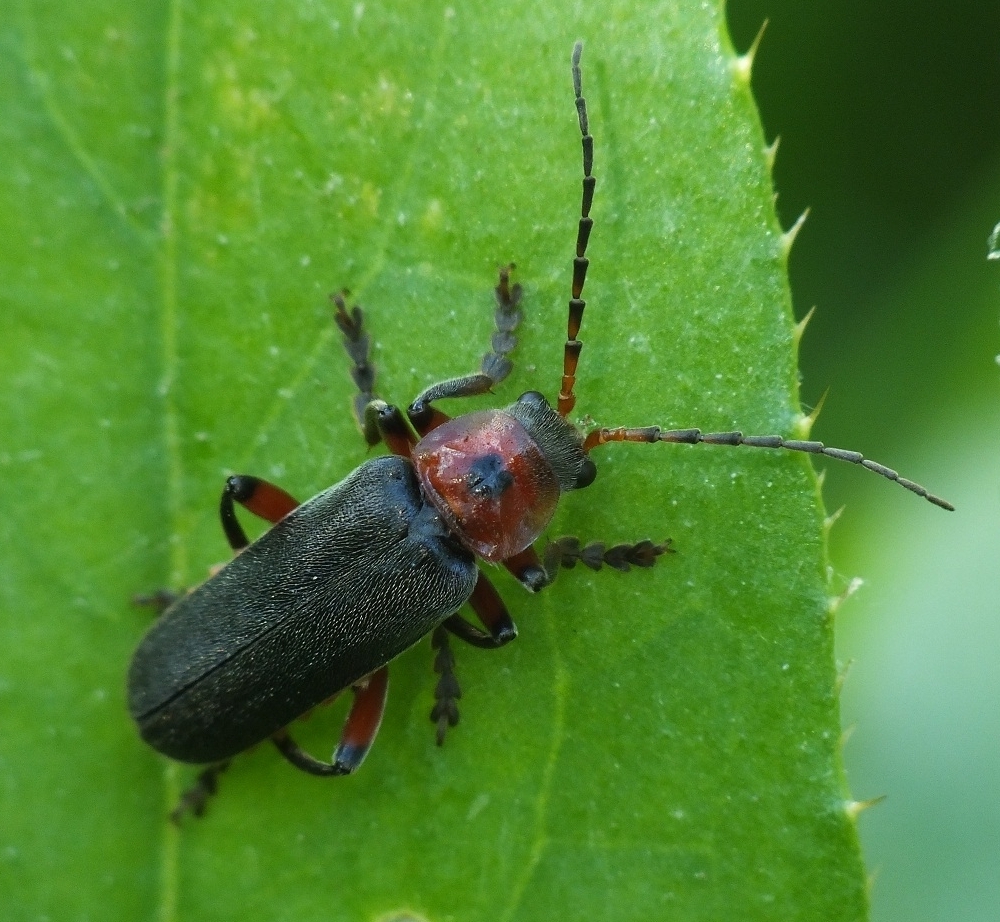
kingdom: Animalia
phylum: Arthropoda
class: Insecta
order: Coleoptera
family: Cantharidae
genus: Cantharis
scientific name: Cantharis rustica
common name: Soldier beetle
